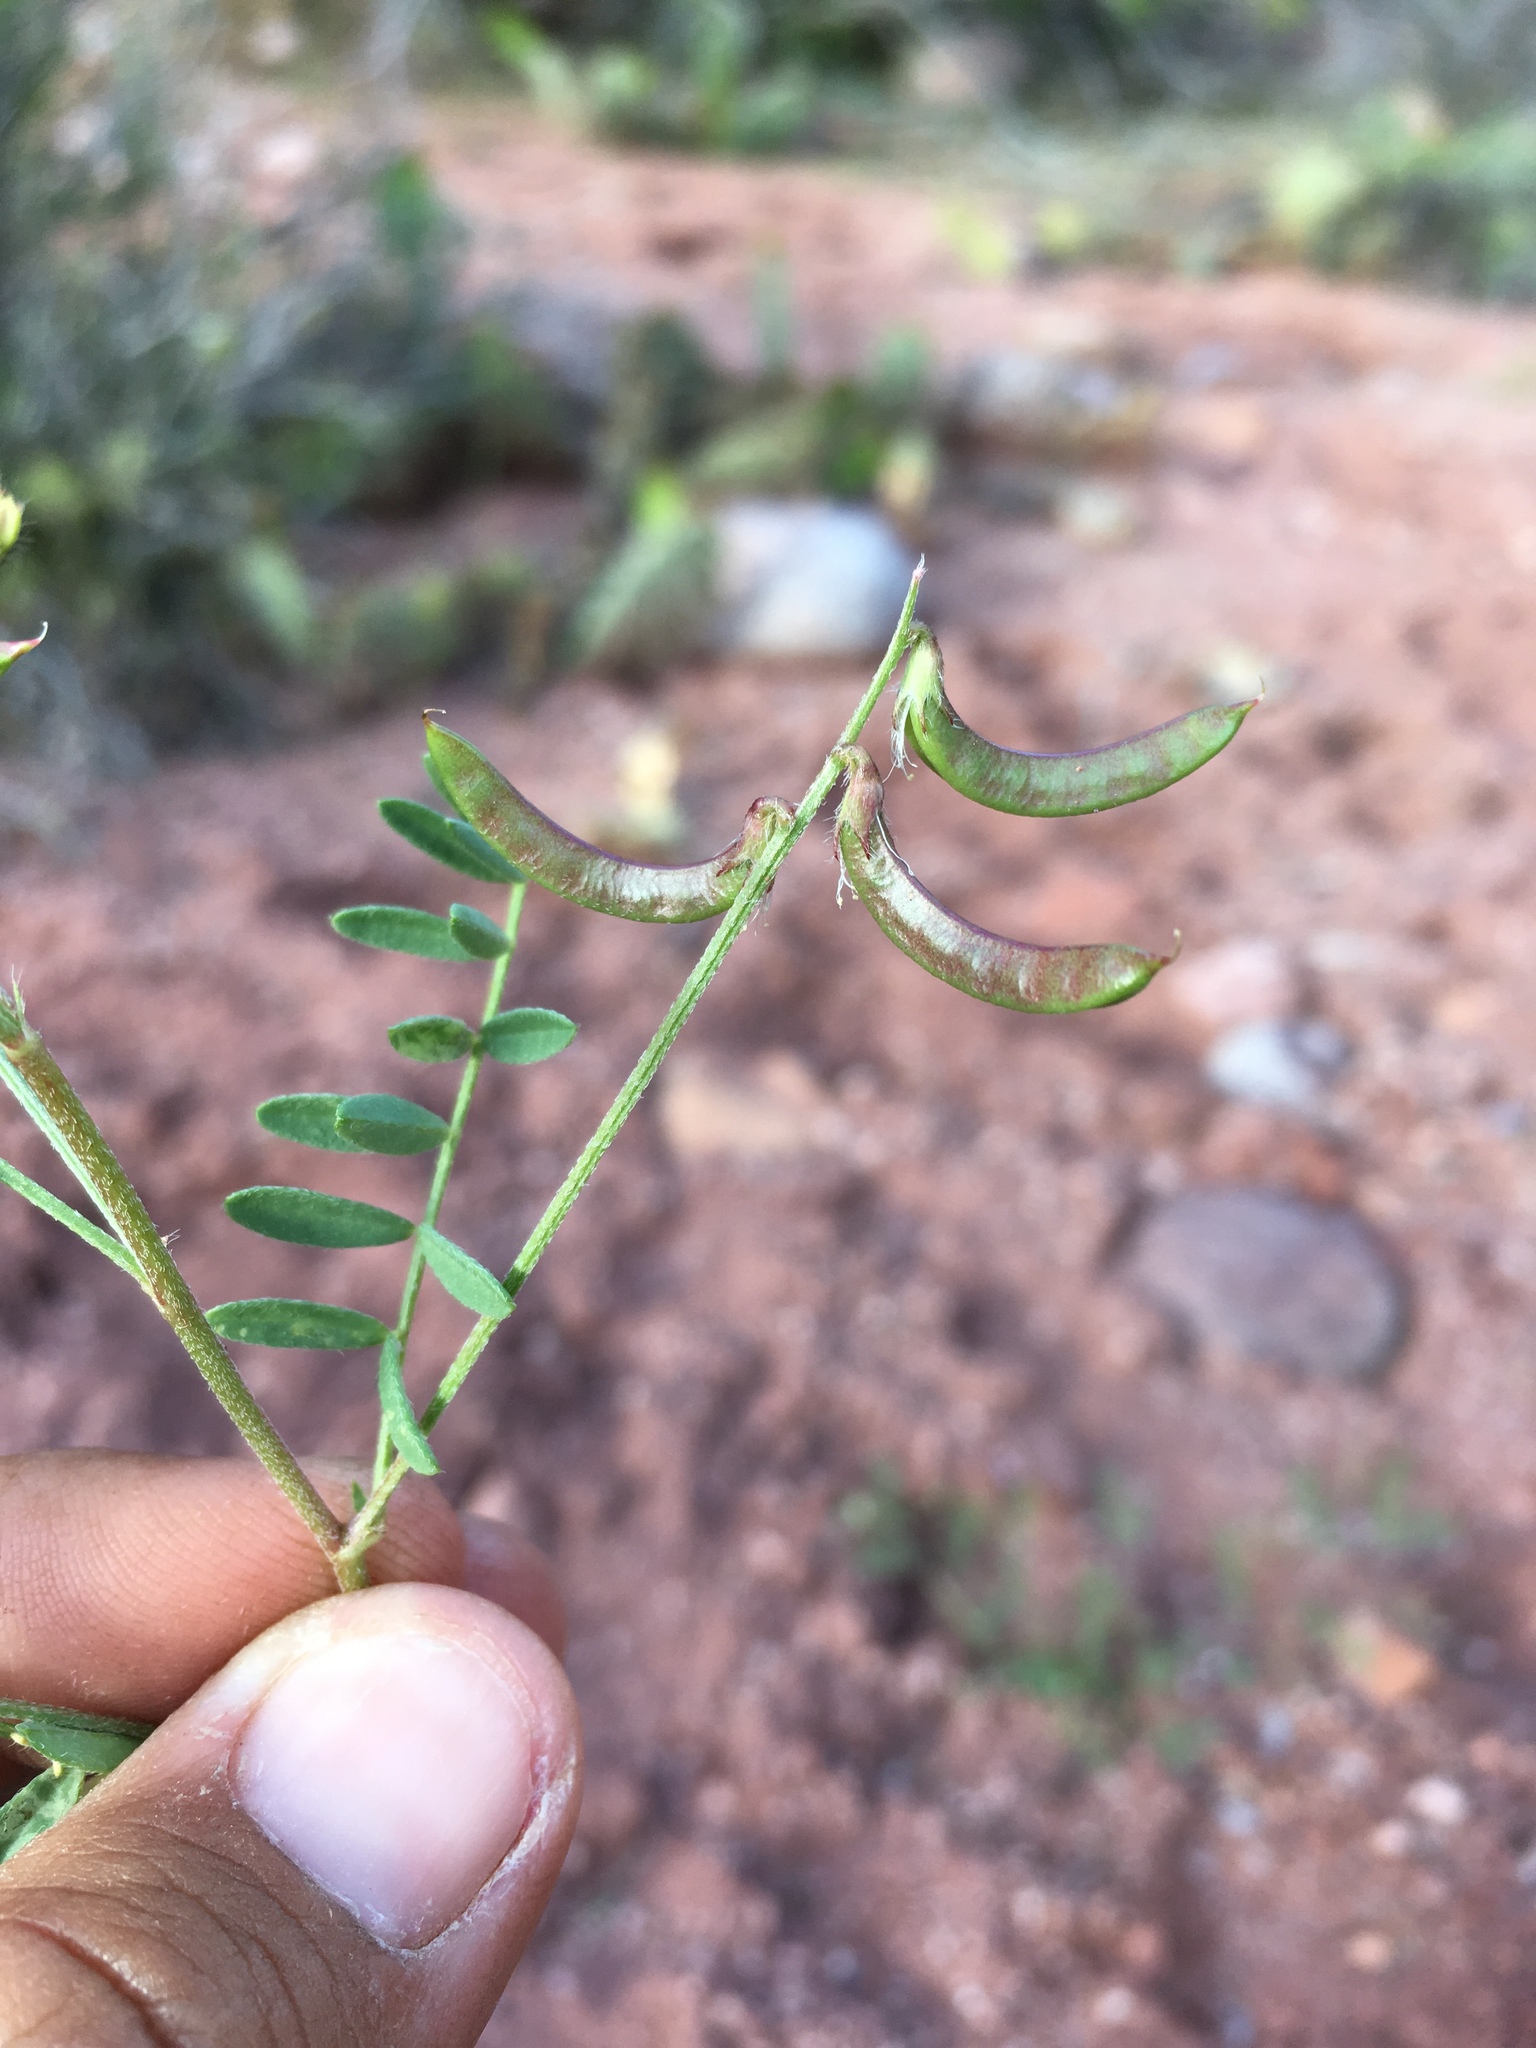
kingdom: Plantae
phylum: Tracheophyta
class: Magnoliopsida
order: Fabales
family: Fabaceae
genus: Astragalus
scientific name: Astragalus nuttallianus
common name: Smallflowered milkvetch
